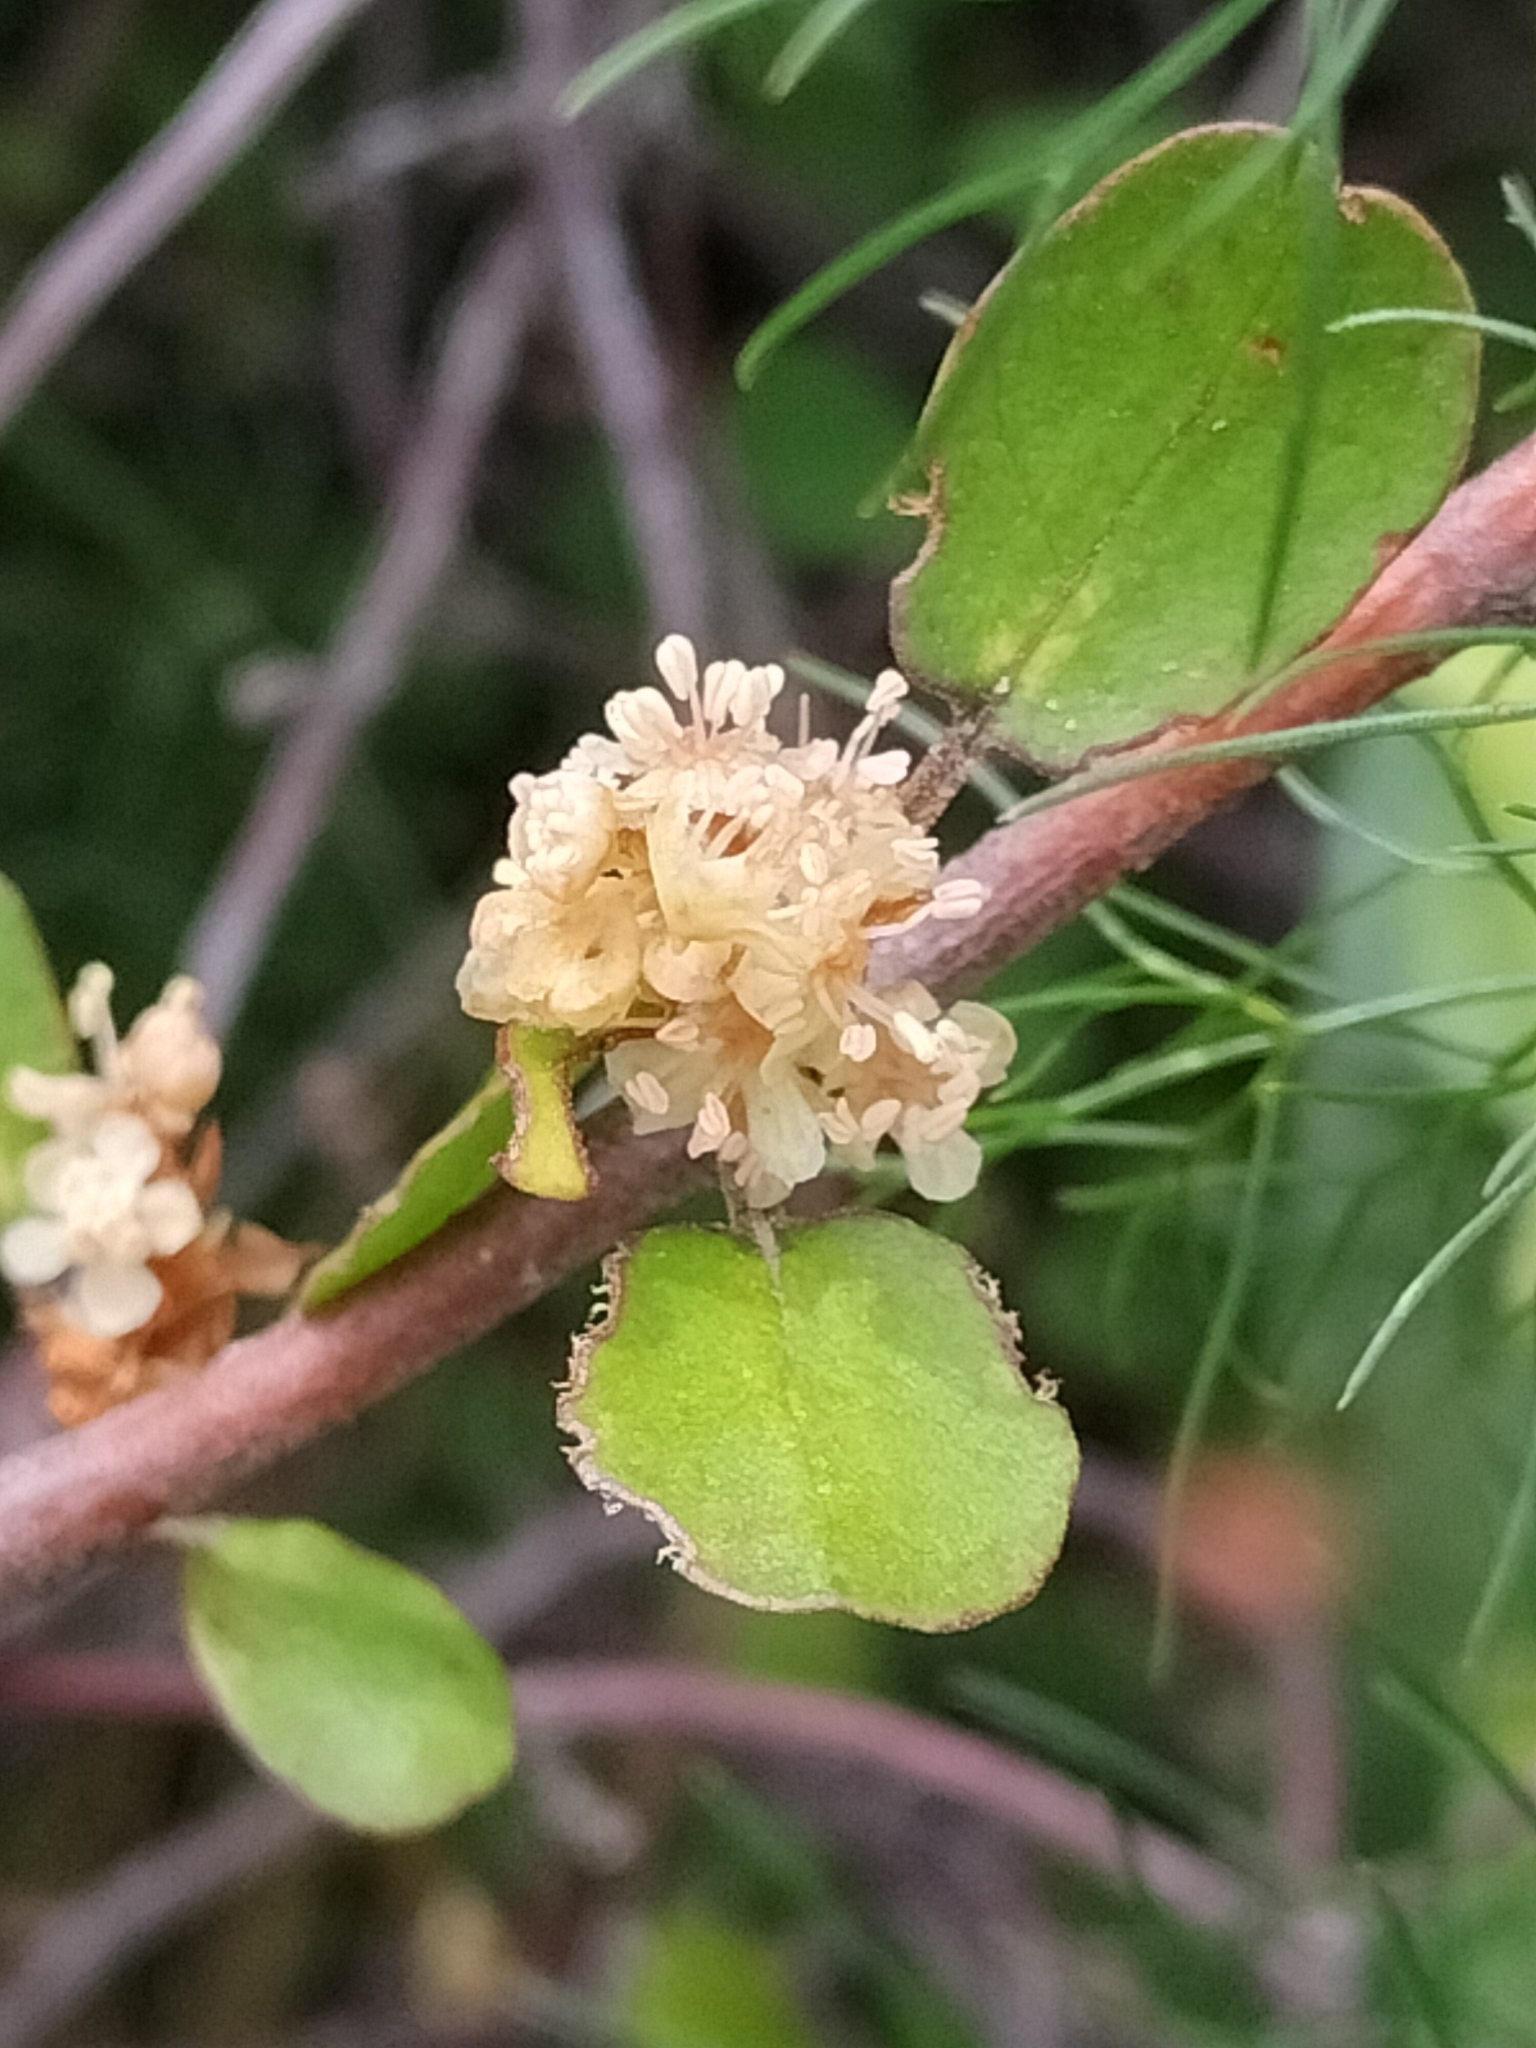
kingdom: Plantae
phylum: Tracheophyta
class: Magnoliopsida
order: Caryophyllales
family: Polygonaceae
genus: Muehlenbeckia
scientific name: Muehlenbeckia complexa
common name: Wireplant
